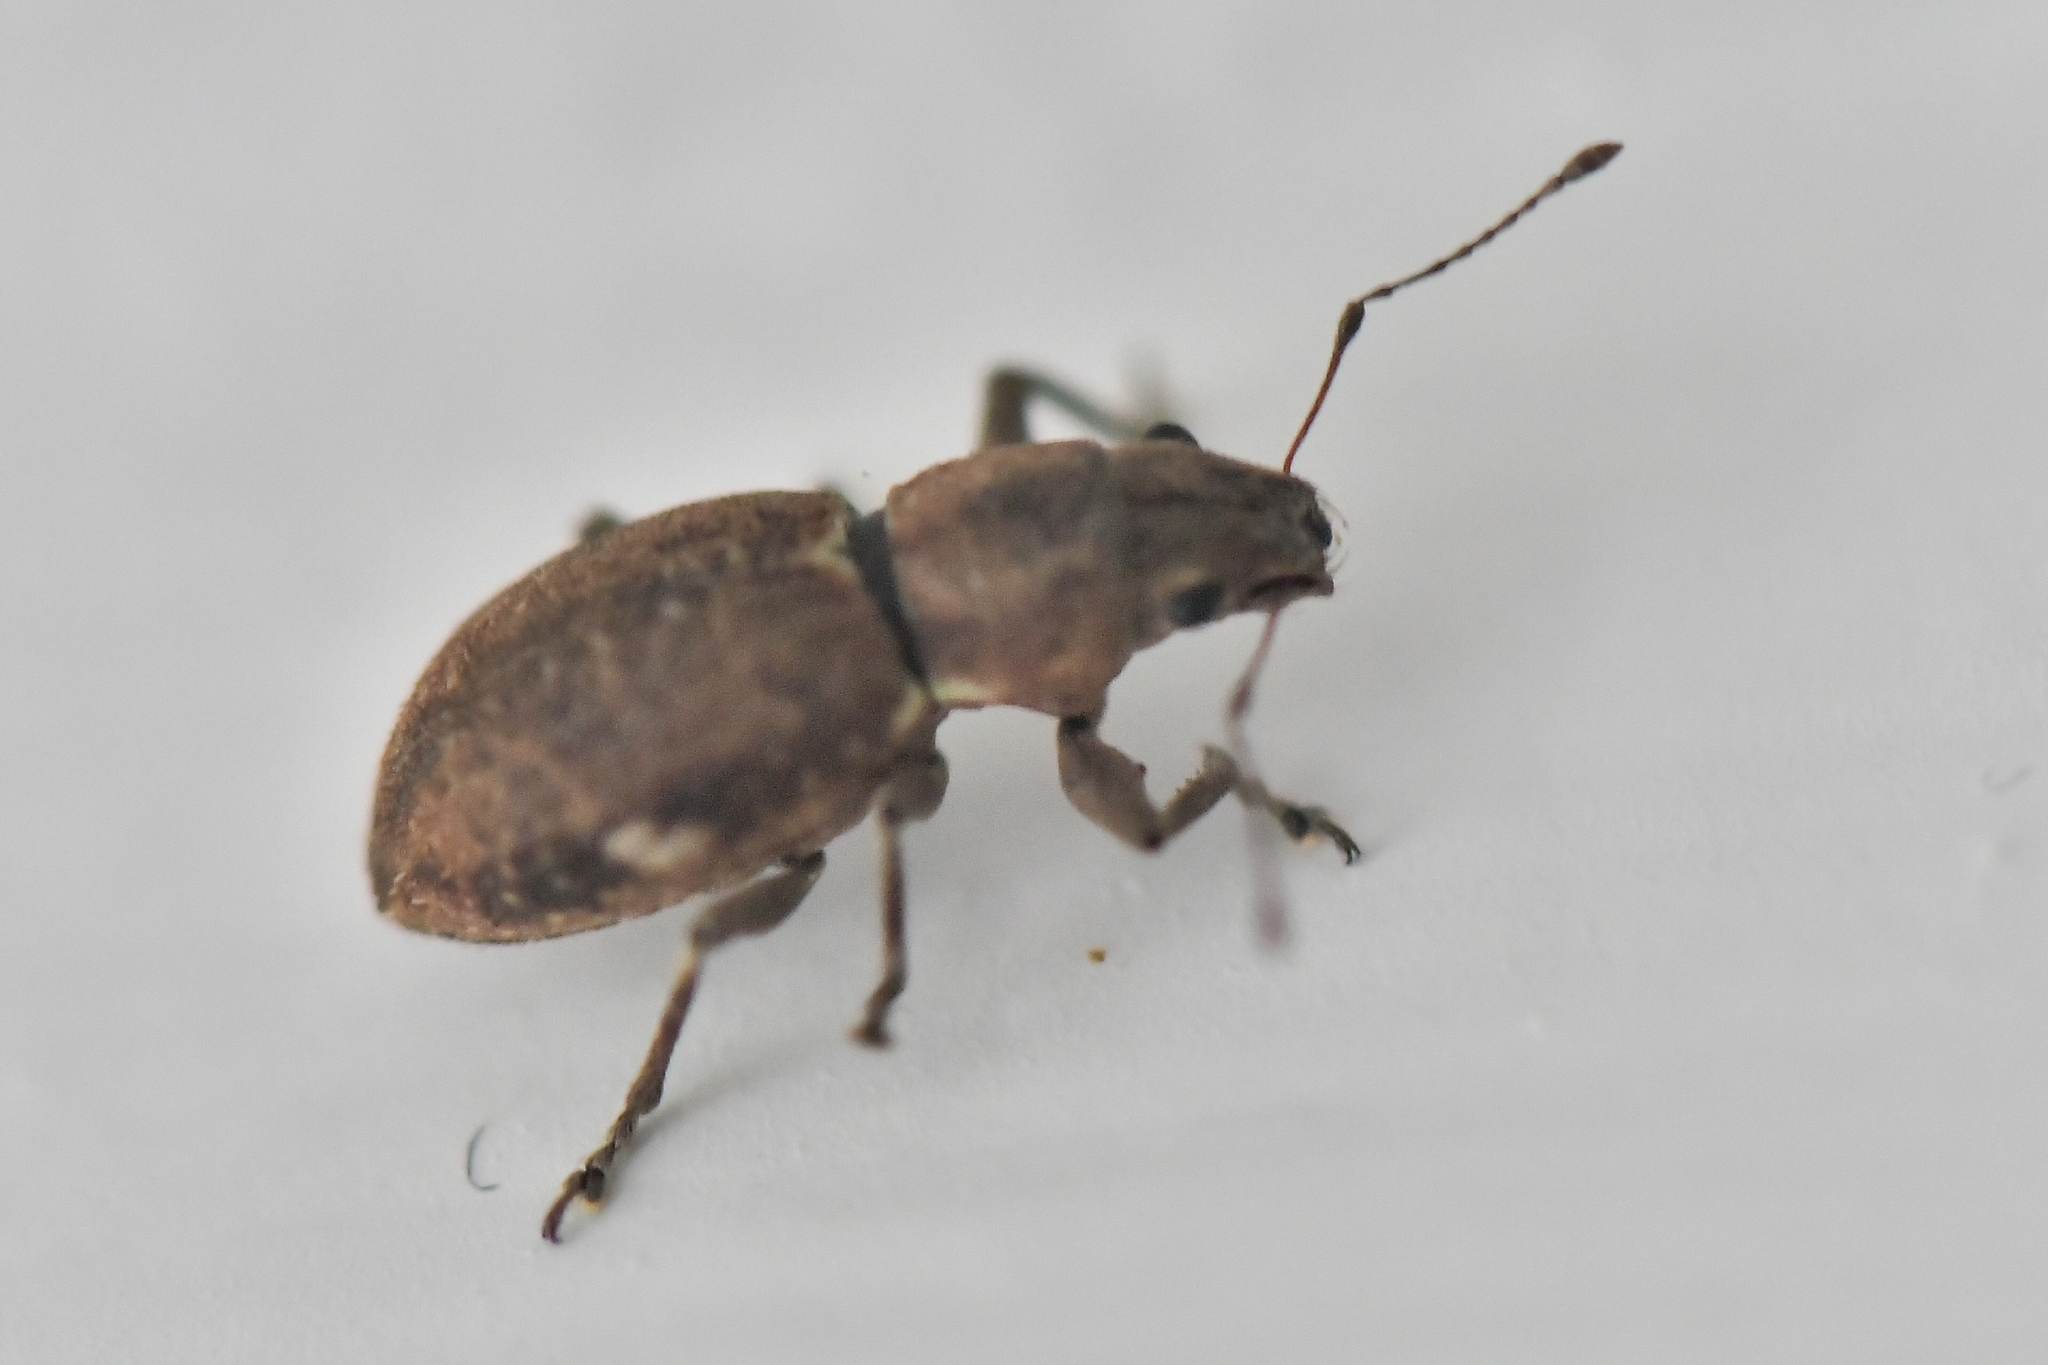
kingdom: Animalia
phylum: Arthropoda
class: Insecta
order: Coleoptera
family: Curculionidae
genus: Naupactus
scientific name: Naupactus cervinus
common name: Fuller rose beetle
